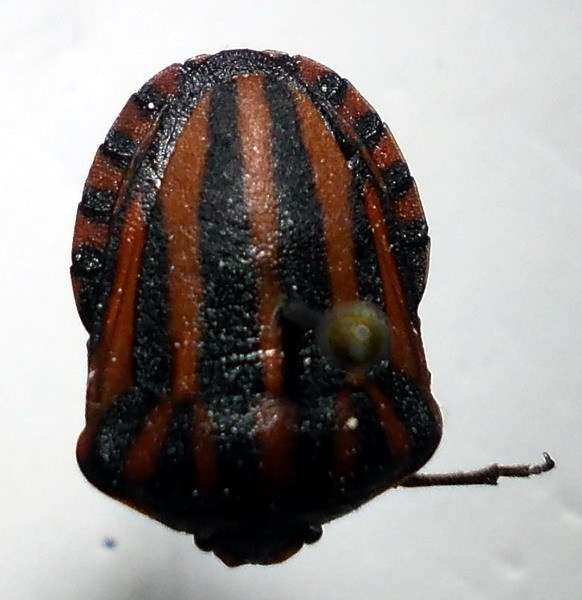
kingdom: Animalia
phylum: Arthropoda
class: Insecta
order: Hemiptera
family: Pentatomidae
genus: Graphosoma
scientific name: Graphosoma italicum
